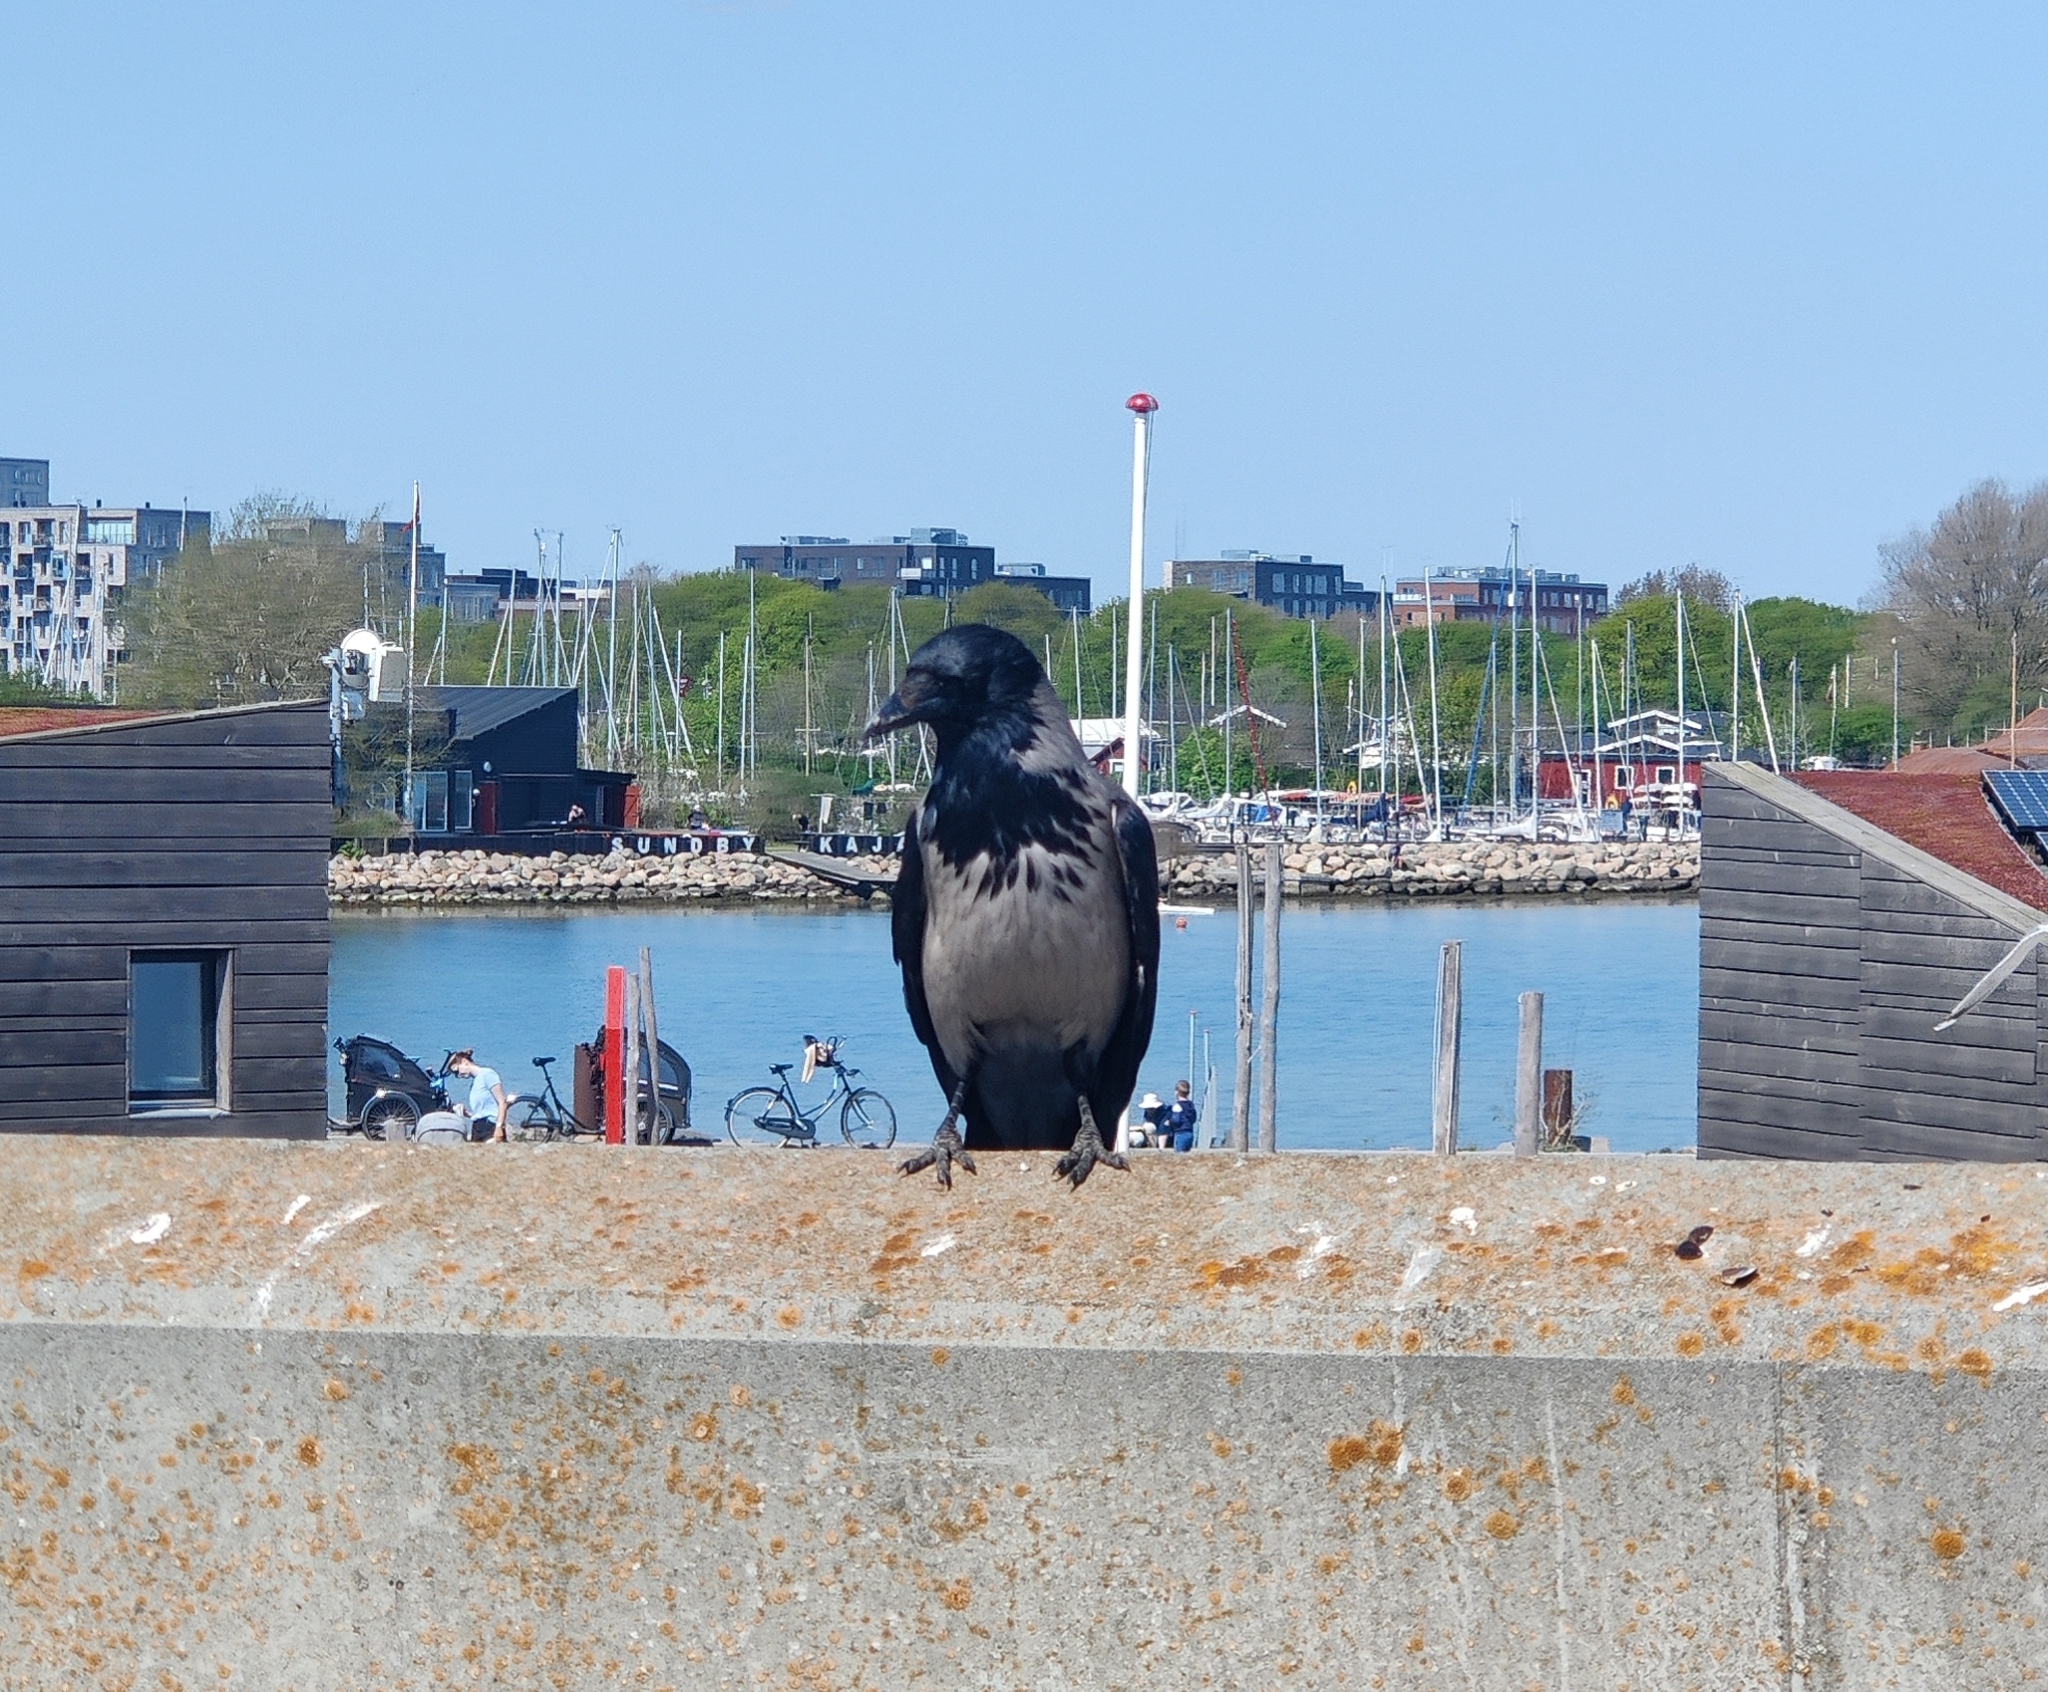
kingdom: Animalia
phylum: Chordata
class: Aves
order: Passeriformes
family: Corvidae
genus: Corvus
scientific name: Corvus cornix
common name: Hooded crow
